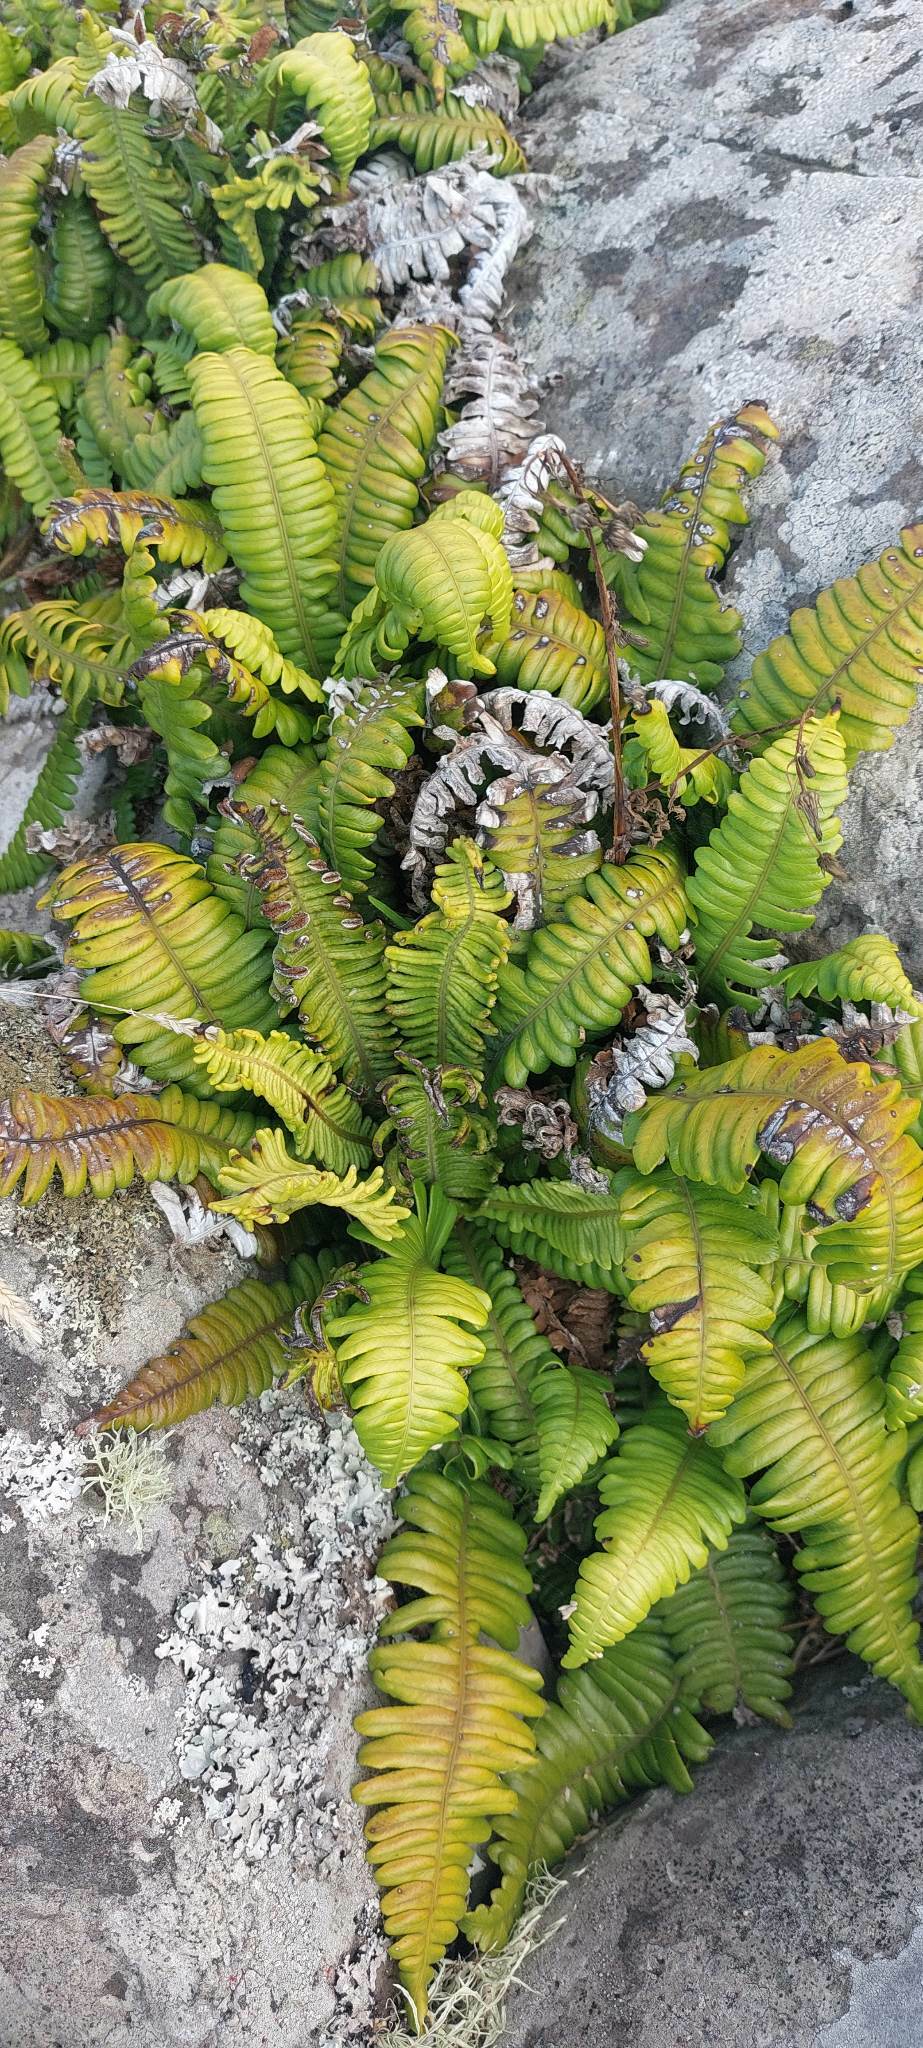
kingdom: Plantae
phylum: Tracheophyta
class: Polypodiopsida
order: Polypodiales
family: Blechnaceae
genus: Austroblechnum
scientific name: Austroblechnum durum
